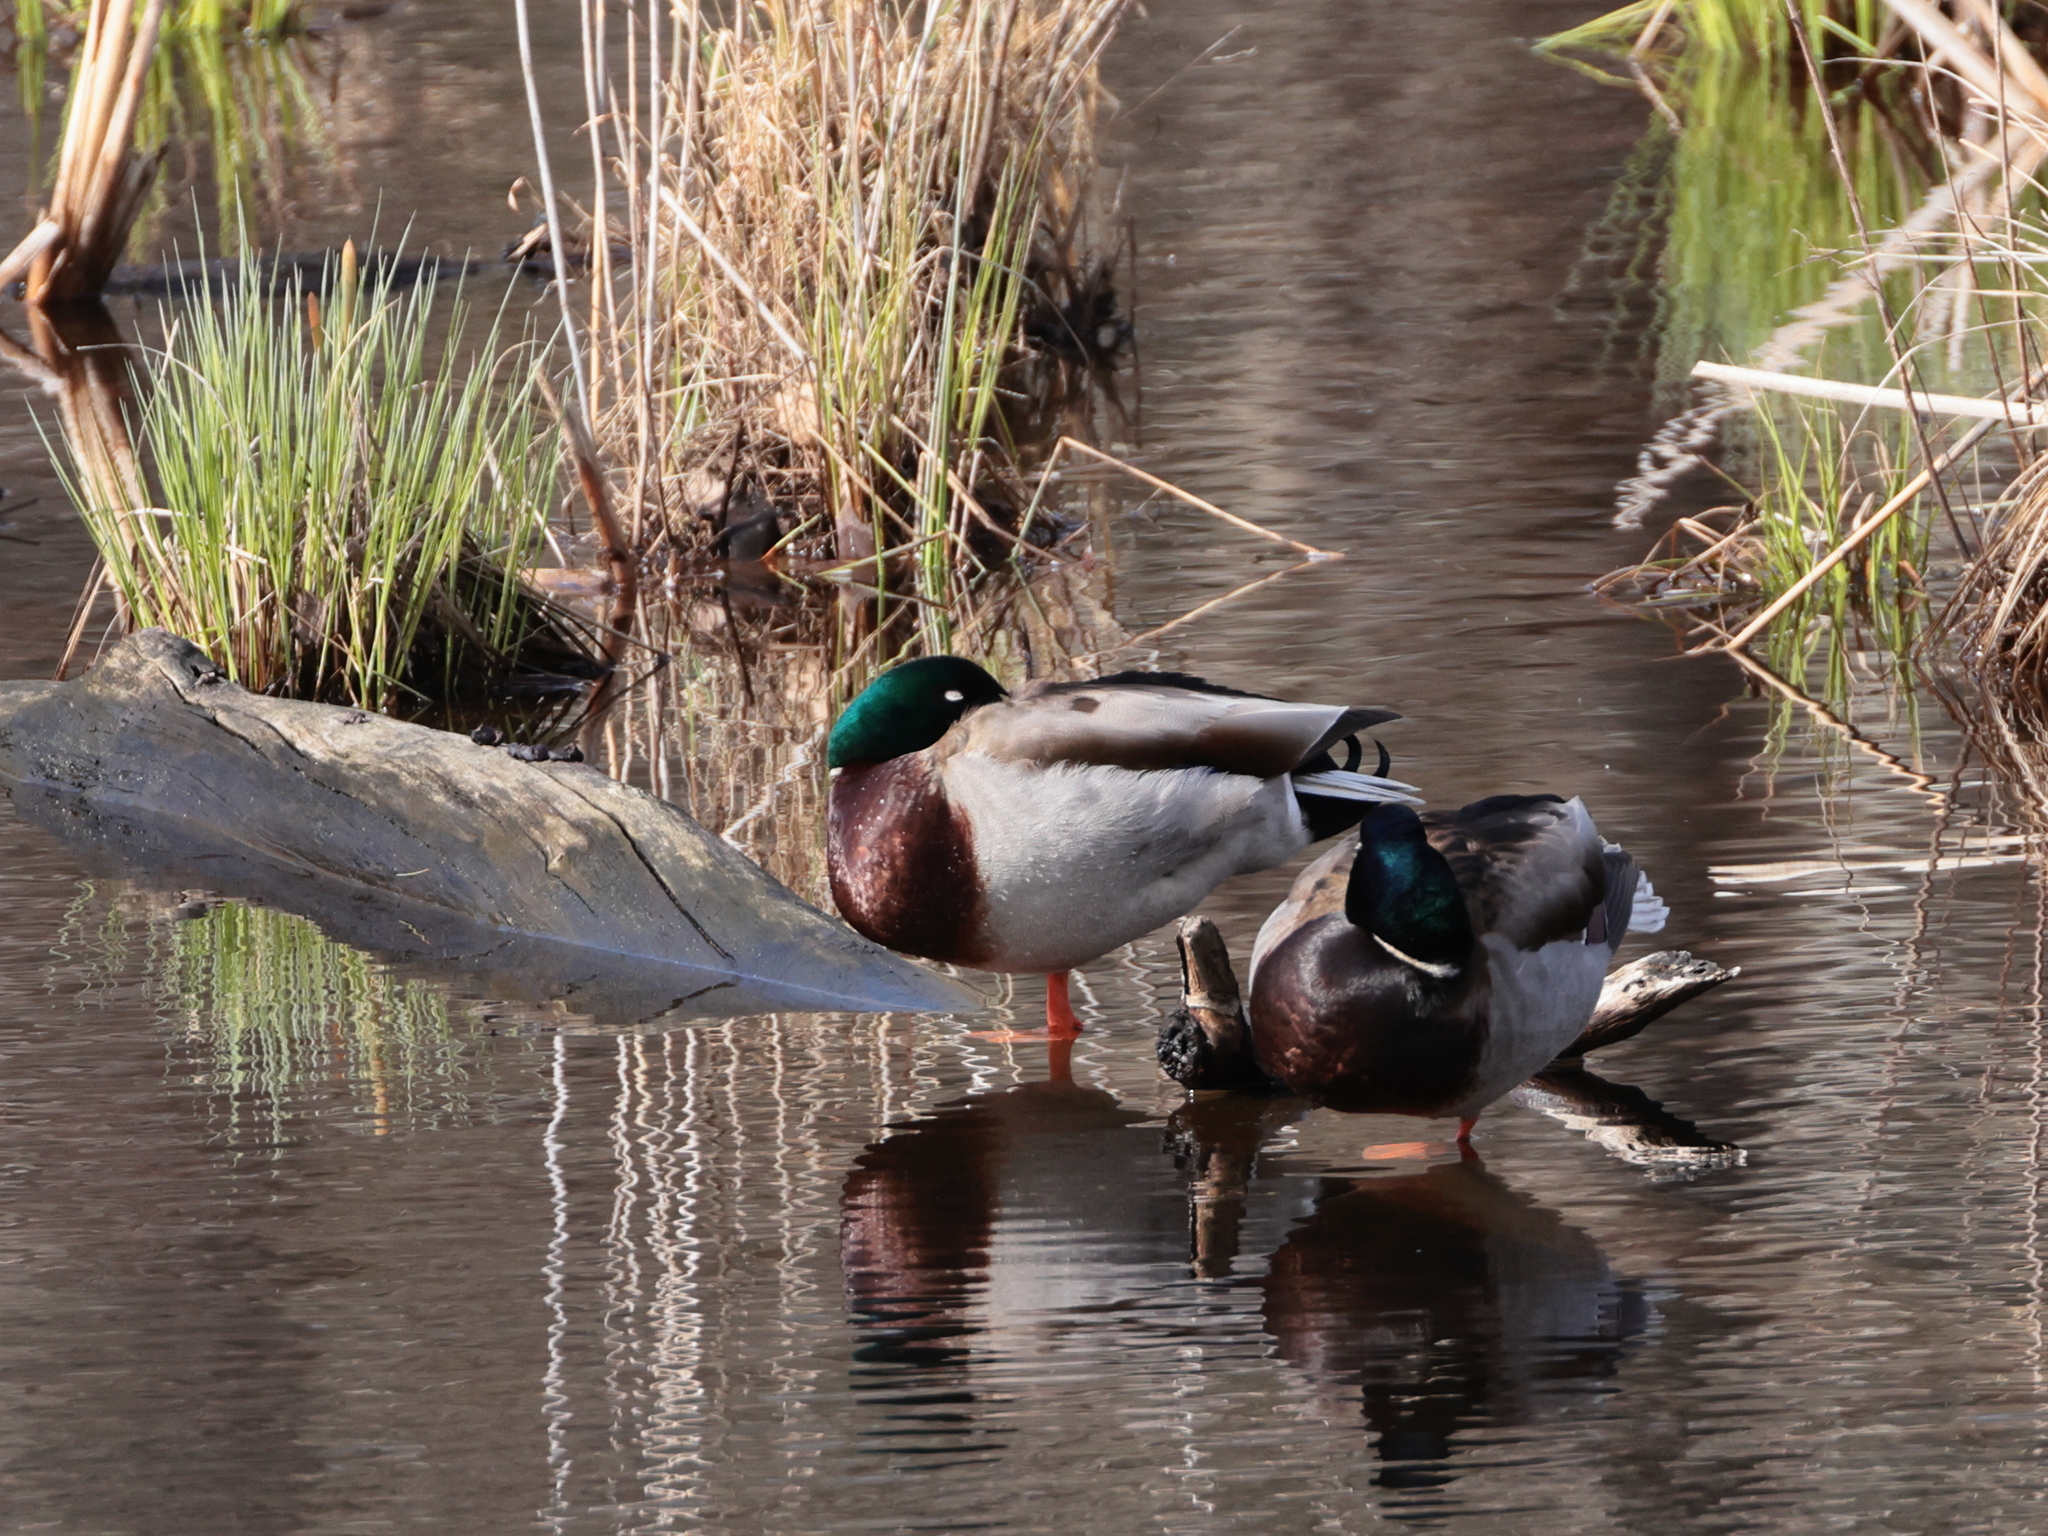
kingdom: Animalia
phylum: Chordata
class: Aves
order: Anseriformes
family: Anatidae
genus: Anas
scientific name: Anas platyrhynchos
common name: Mallard
